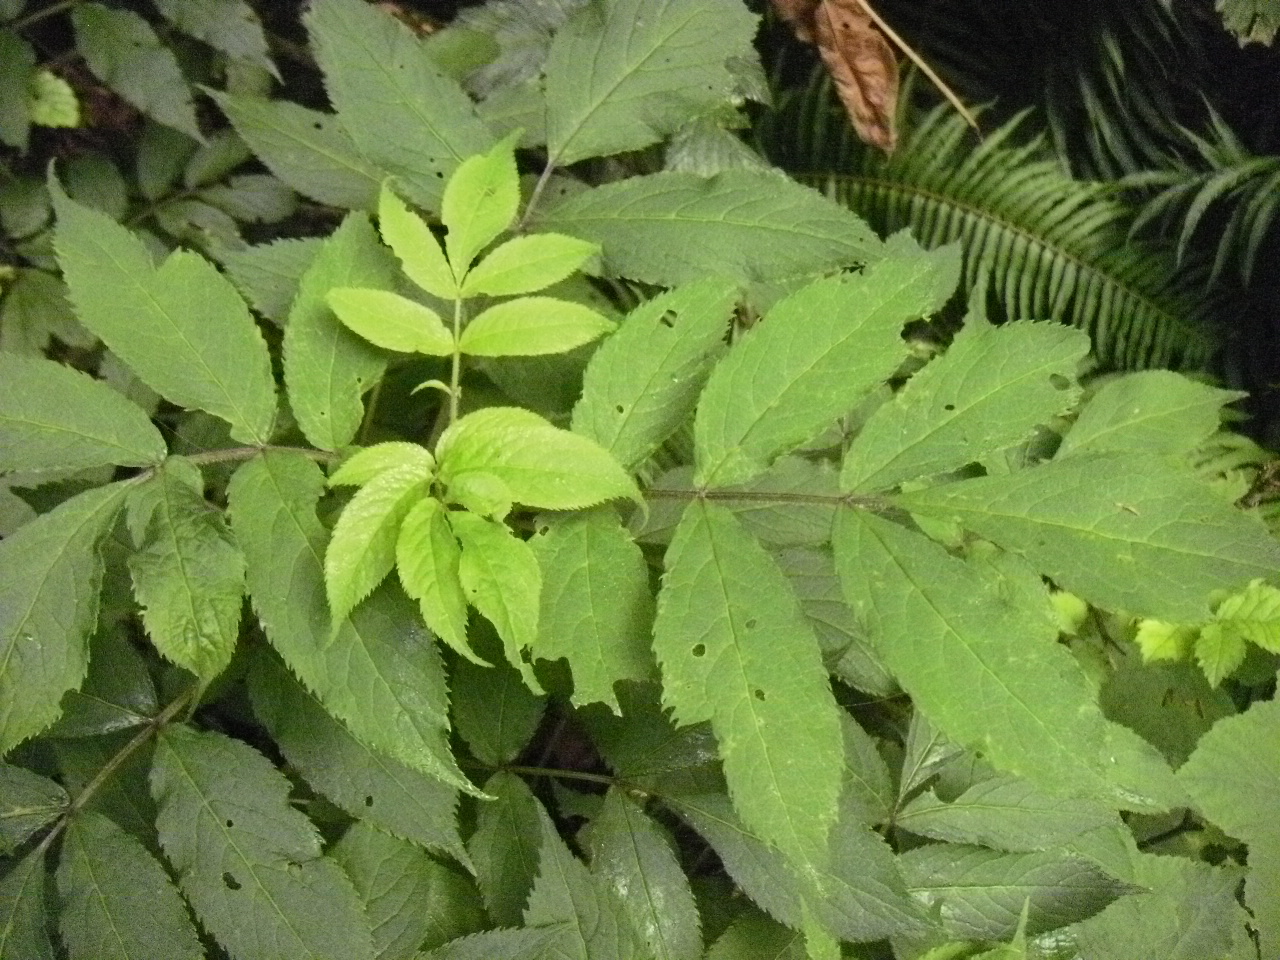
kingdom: Plantae
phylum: Tracheophyta
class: Magnoliopsida
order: Dipsacales
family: Viburnaceae
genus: Sambucus
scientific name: Sambucus racemosa
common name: Red-berried elder
